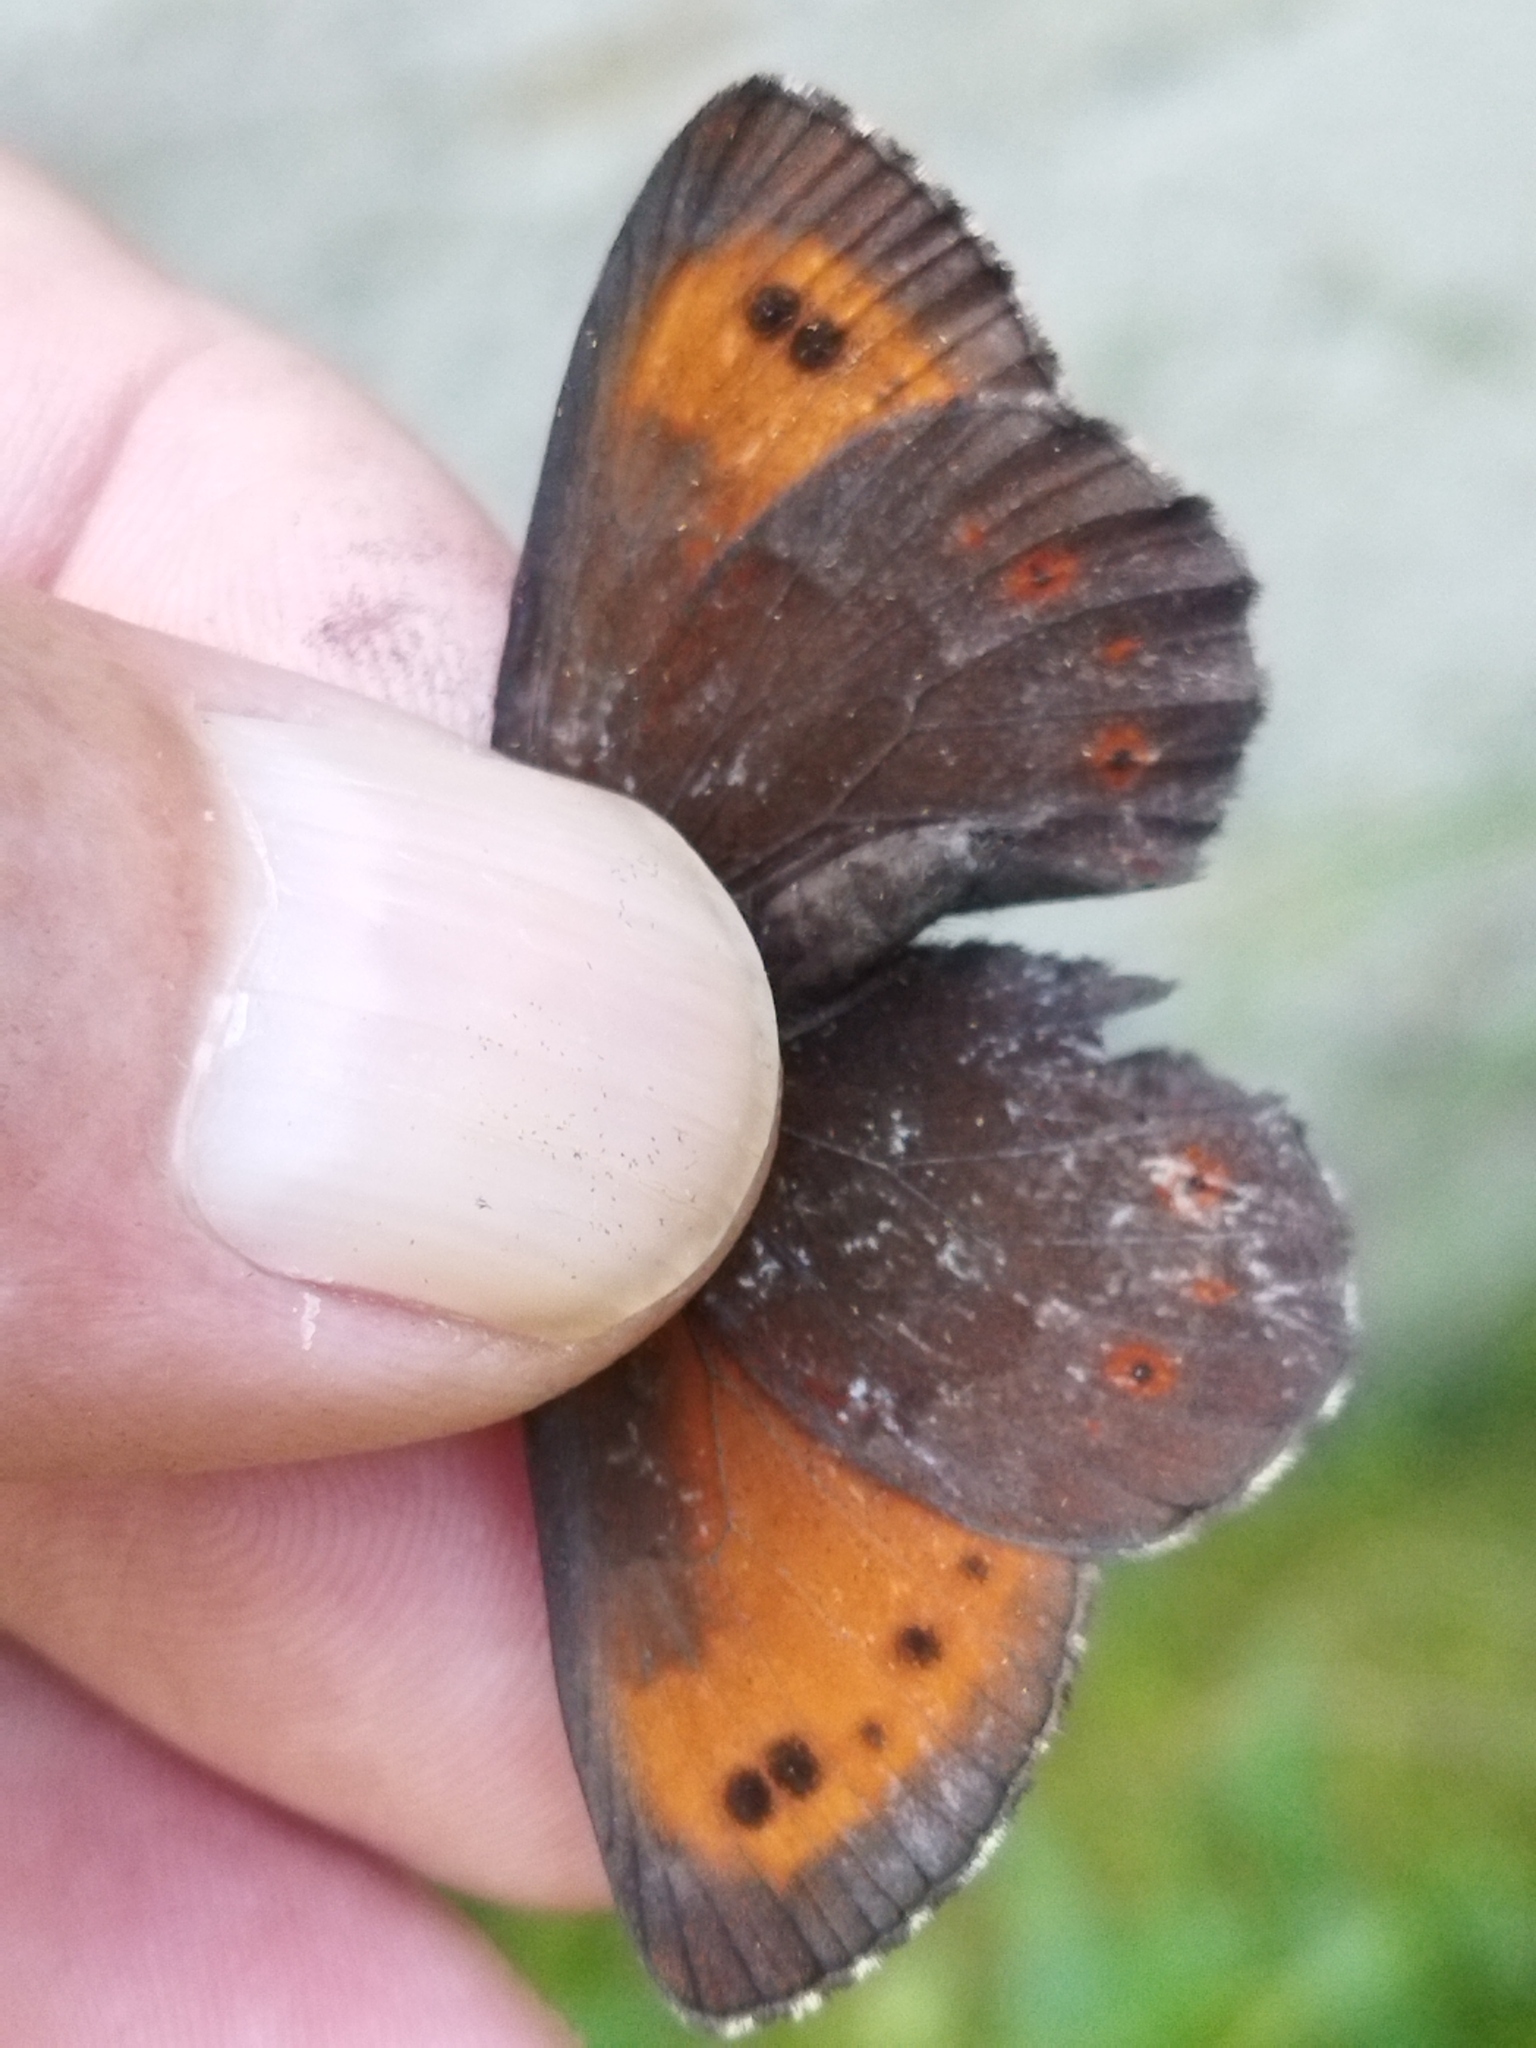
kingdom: Animalia
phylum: Arthropoda
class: Insecta
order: Lepidoptera
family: Nymphalidae
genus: Erebia
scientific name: Erebia euryale
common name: Large ringlet
